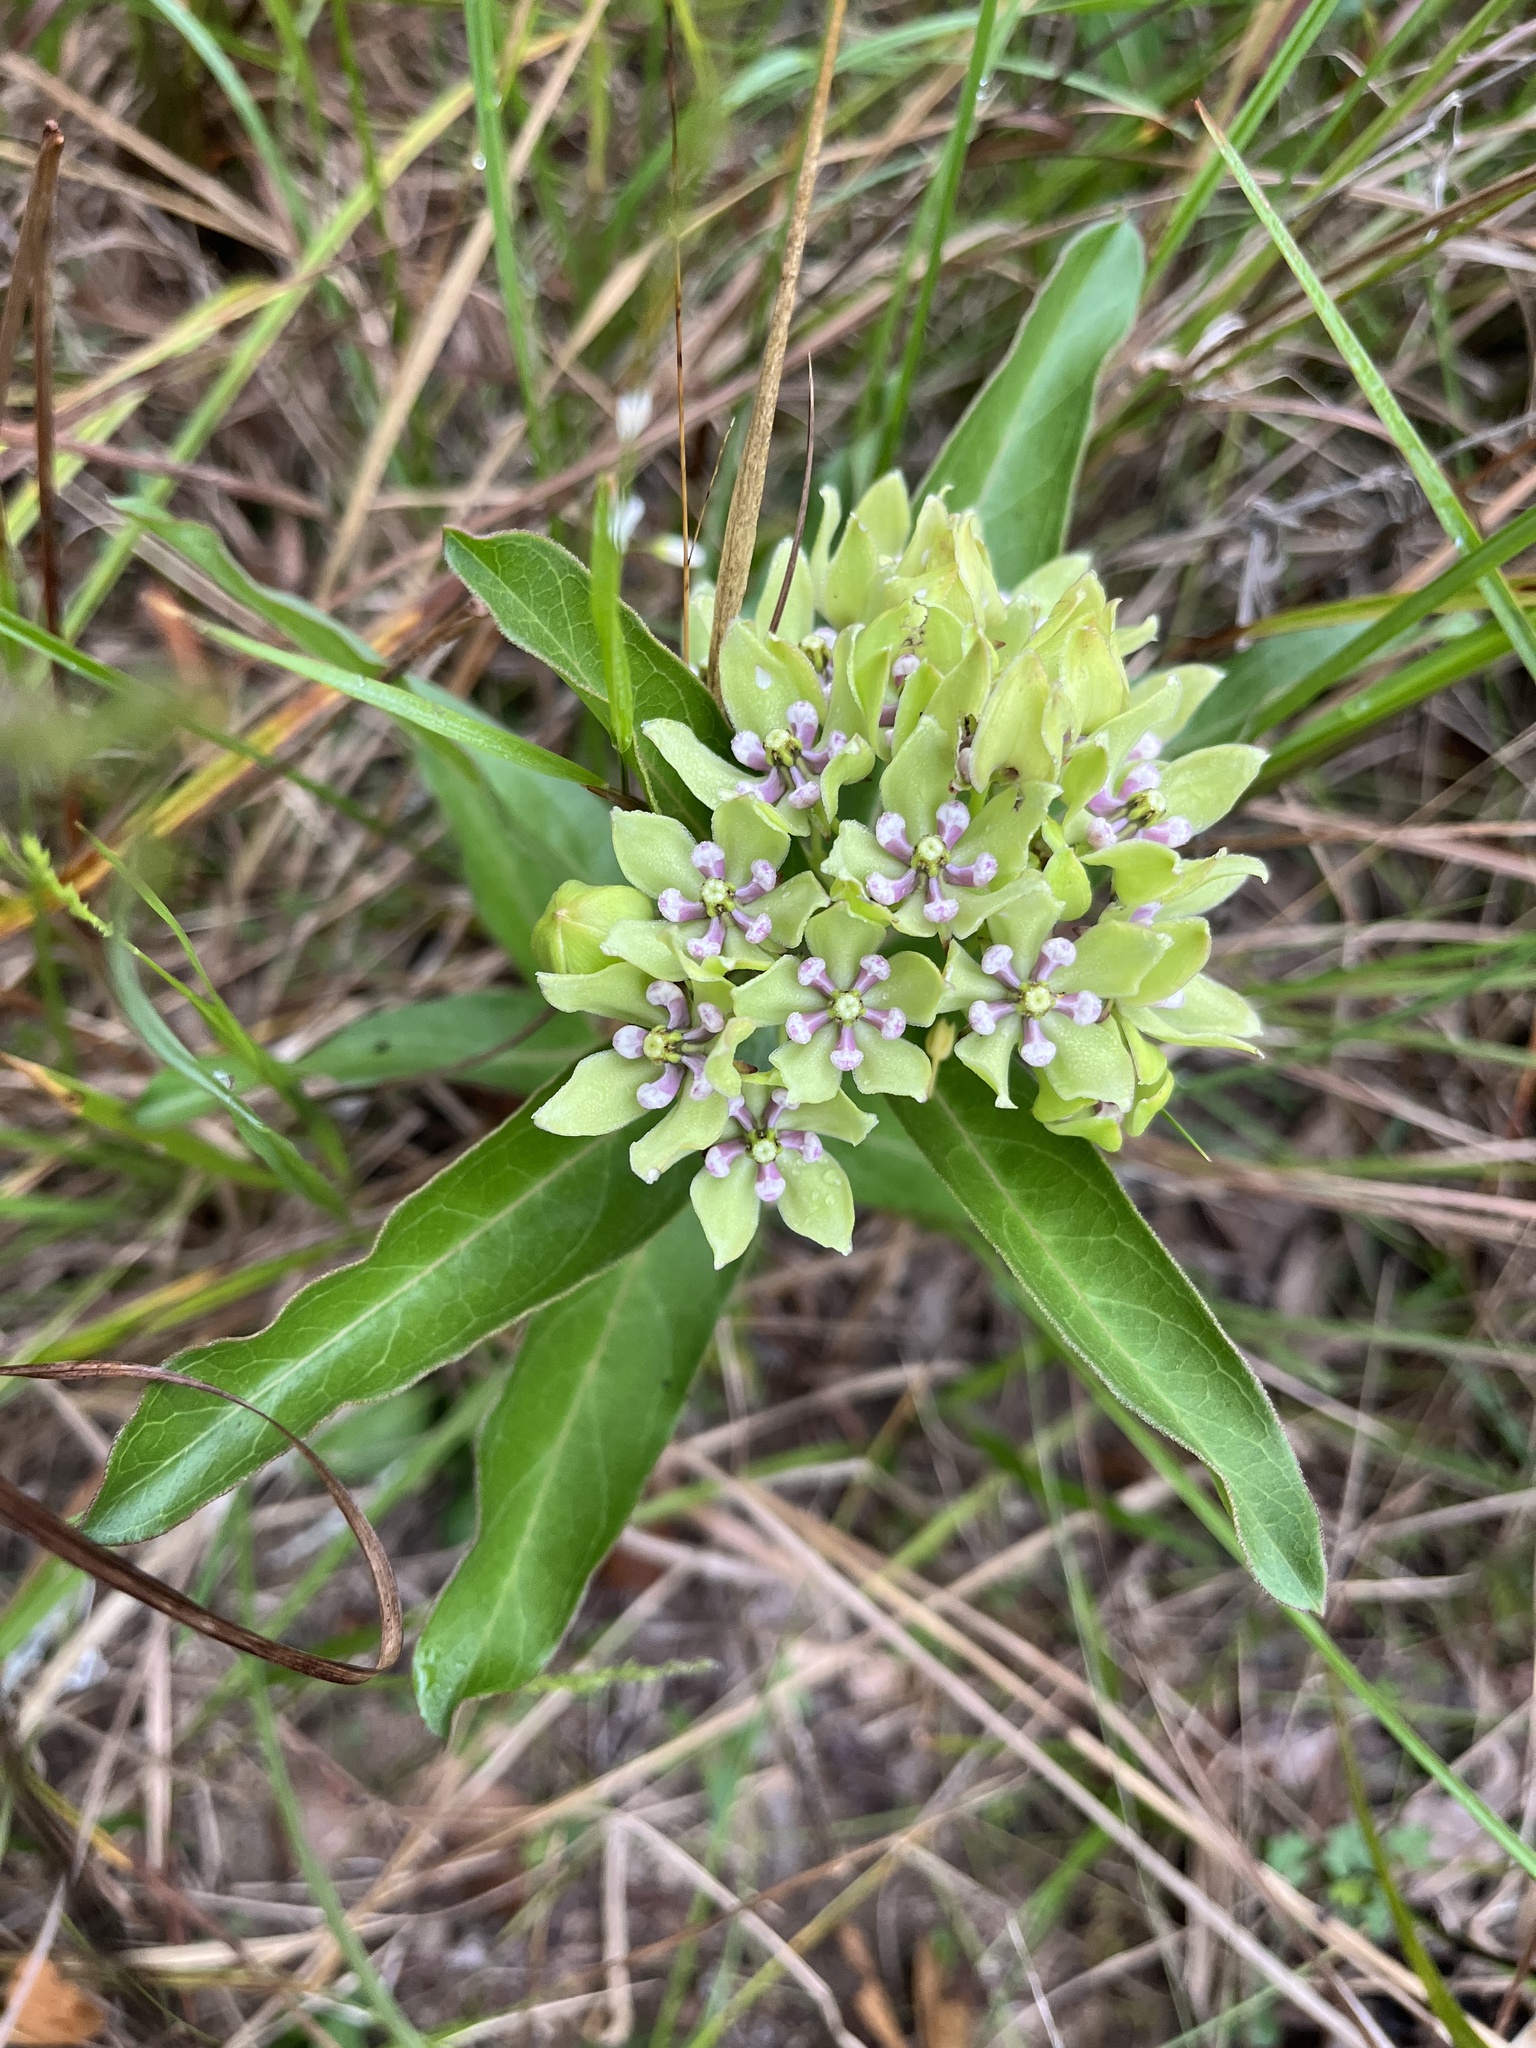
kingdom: Plantae
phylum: Tracheophyta
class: Magnoliopsida
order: Gentianales
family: Apocynaceae
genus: Asclepias
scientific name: Asclepias viridis
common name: Antelope-horns
